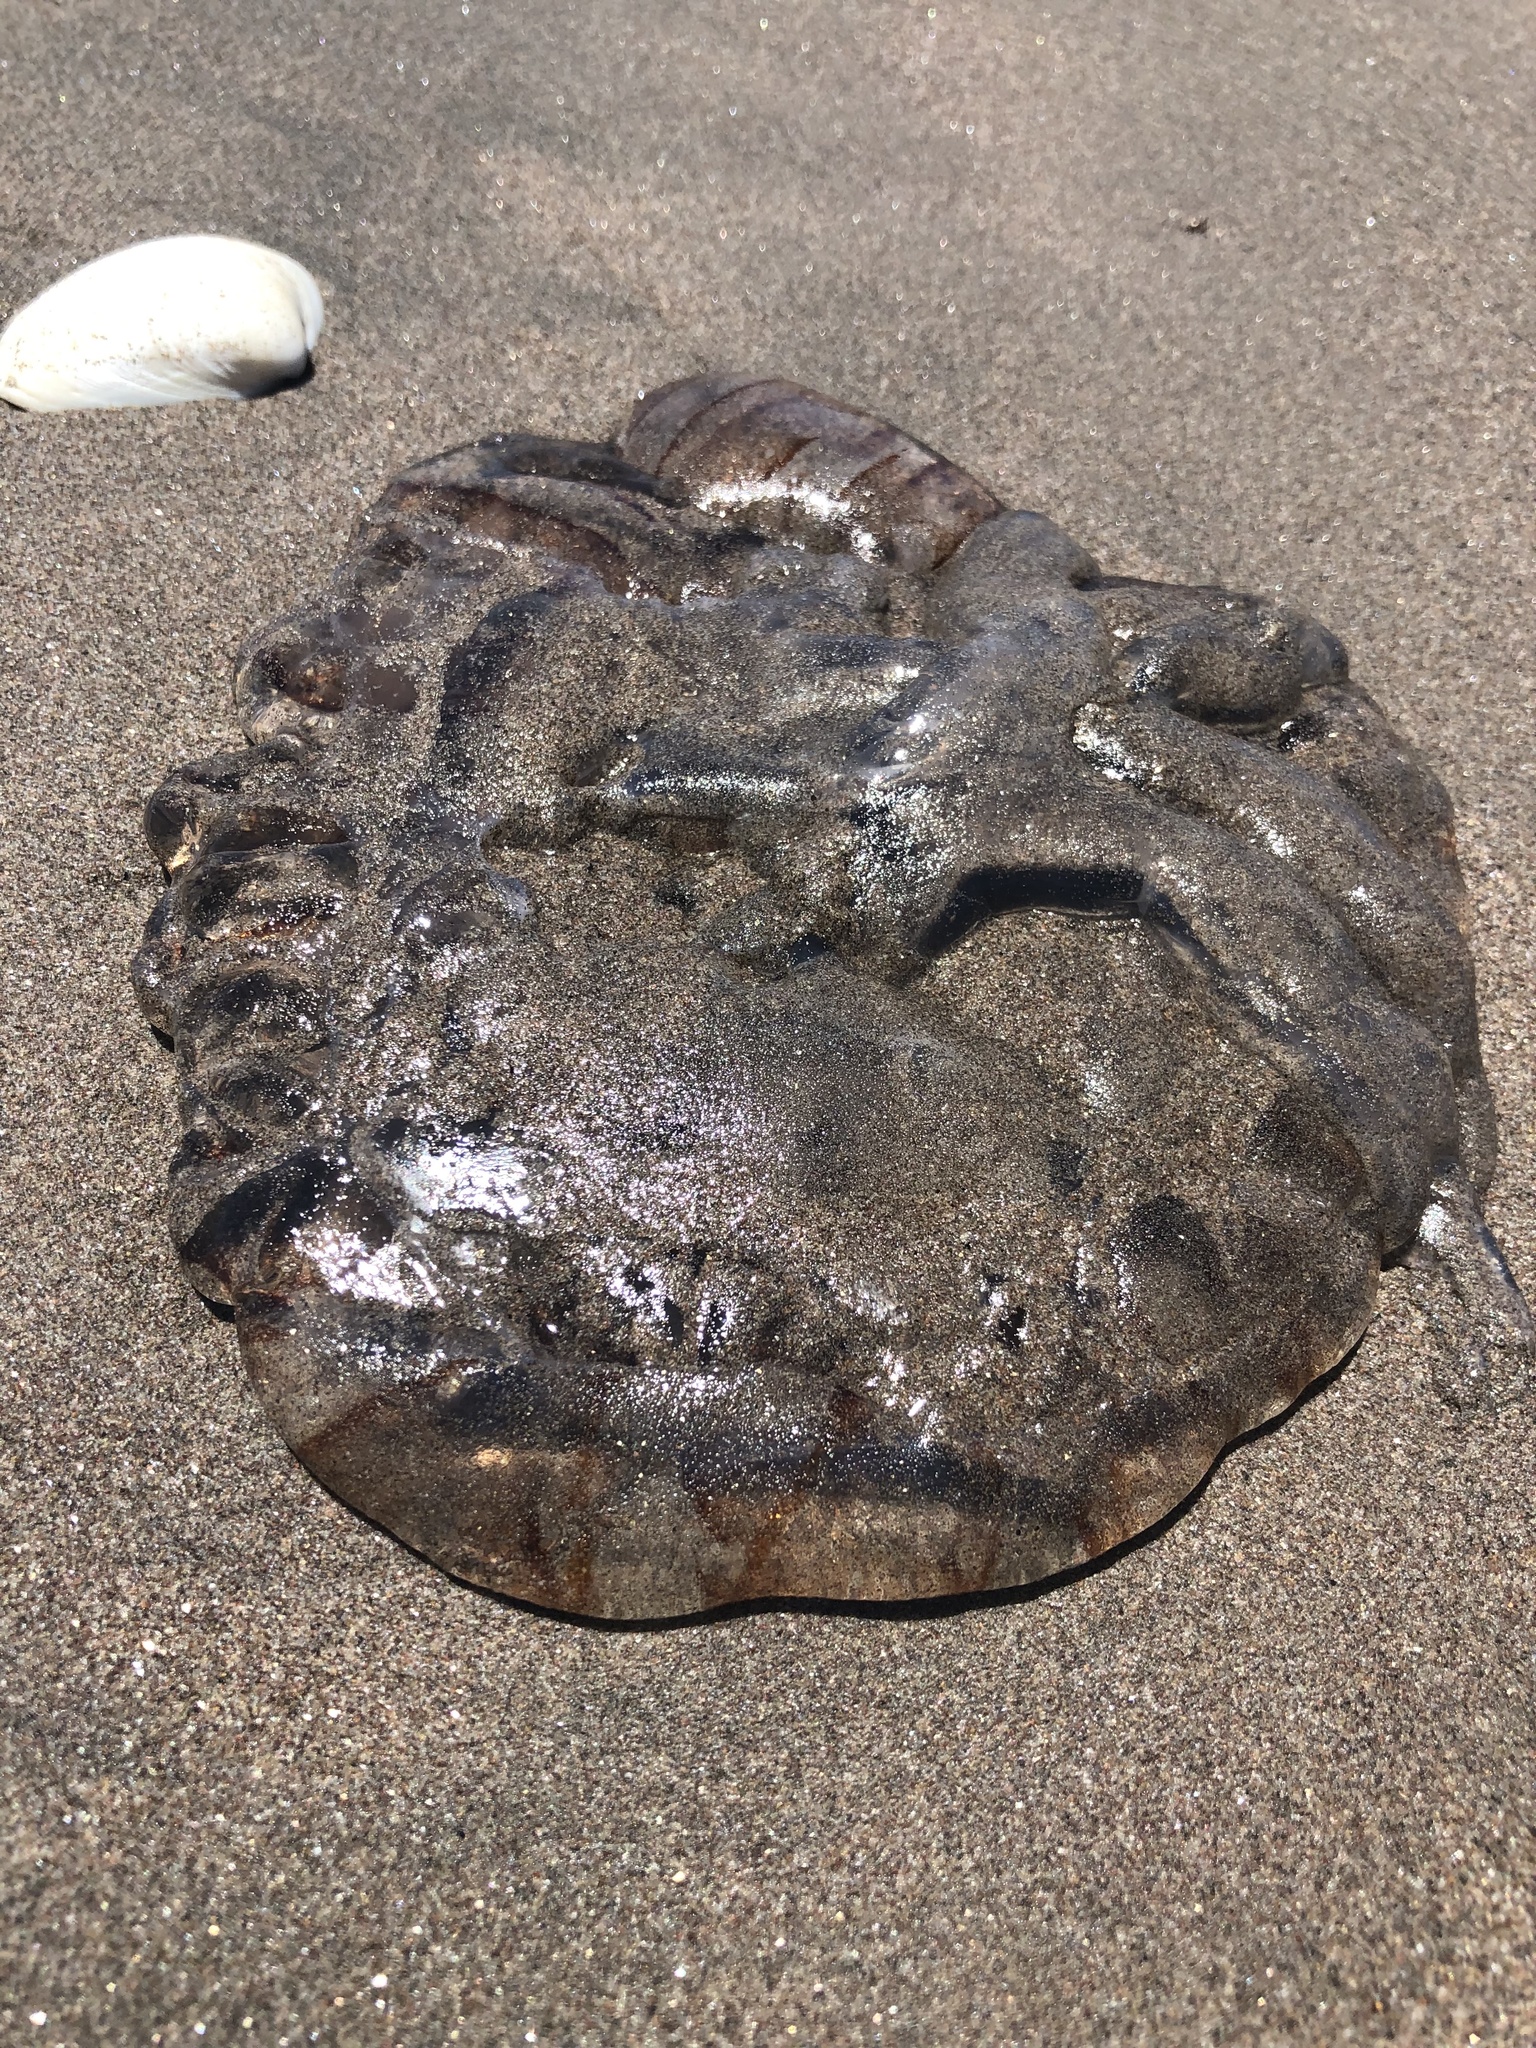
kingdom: Animalia
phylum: Cnidaria
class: Scyphozoa
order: Semaeostomeae
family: Pelagiidae
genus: Chrysaora
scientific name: Chrysaora plocamia
